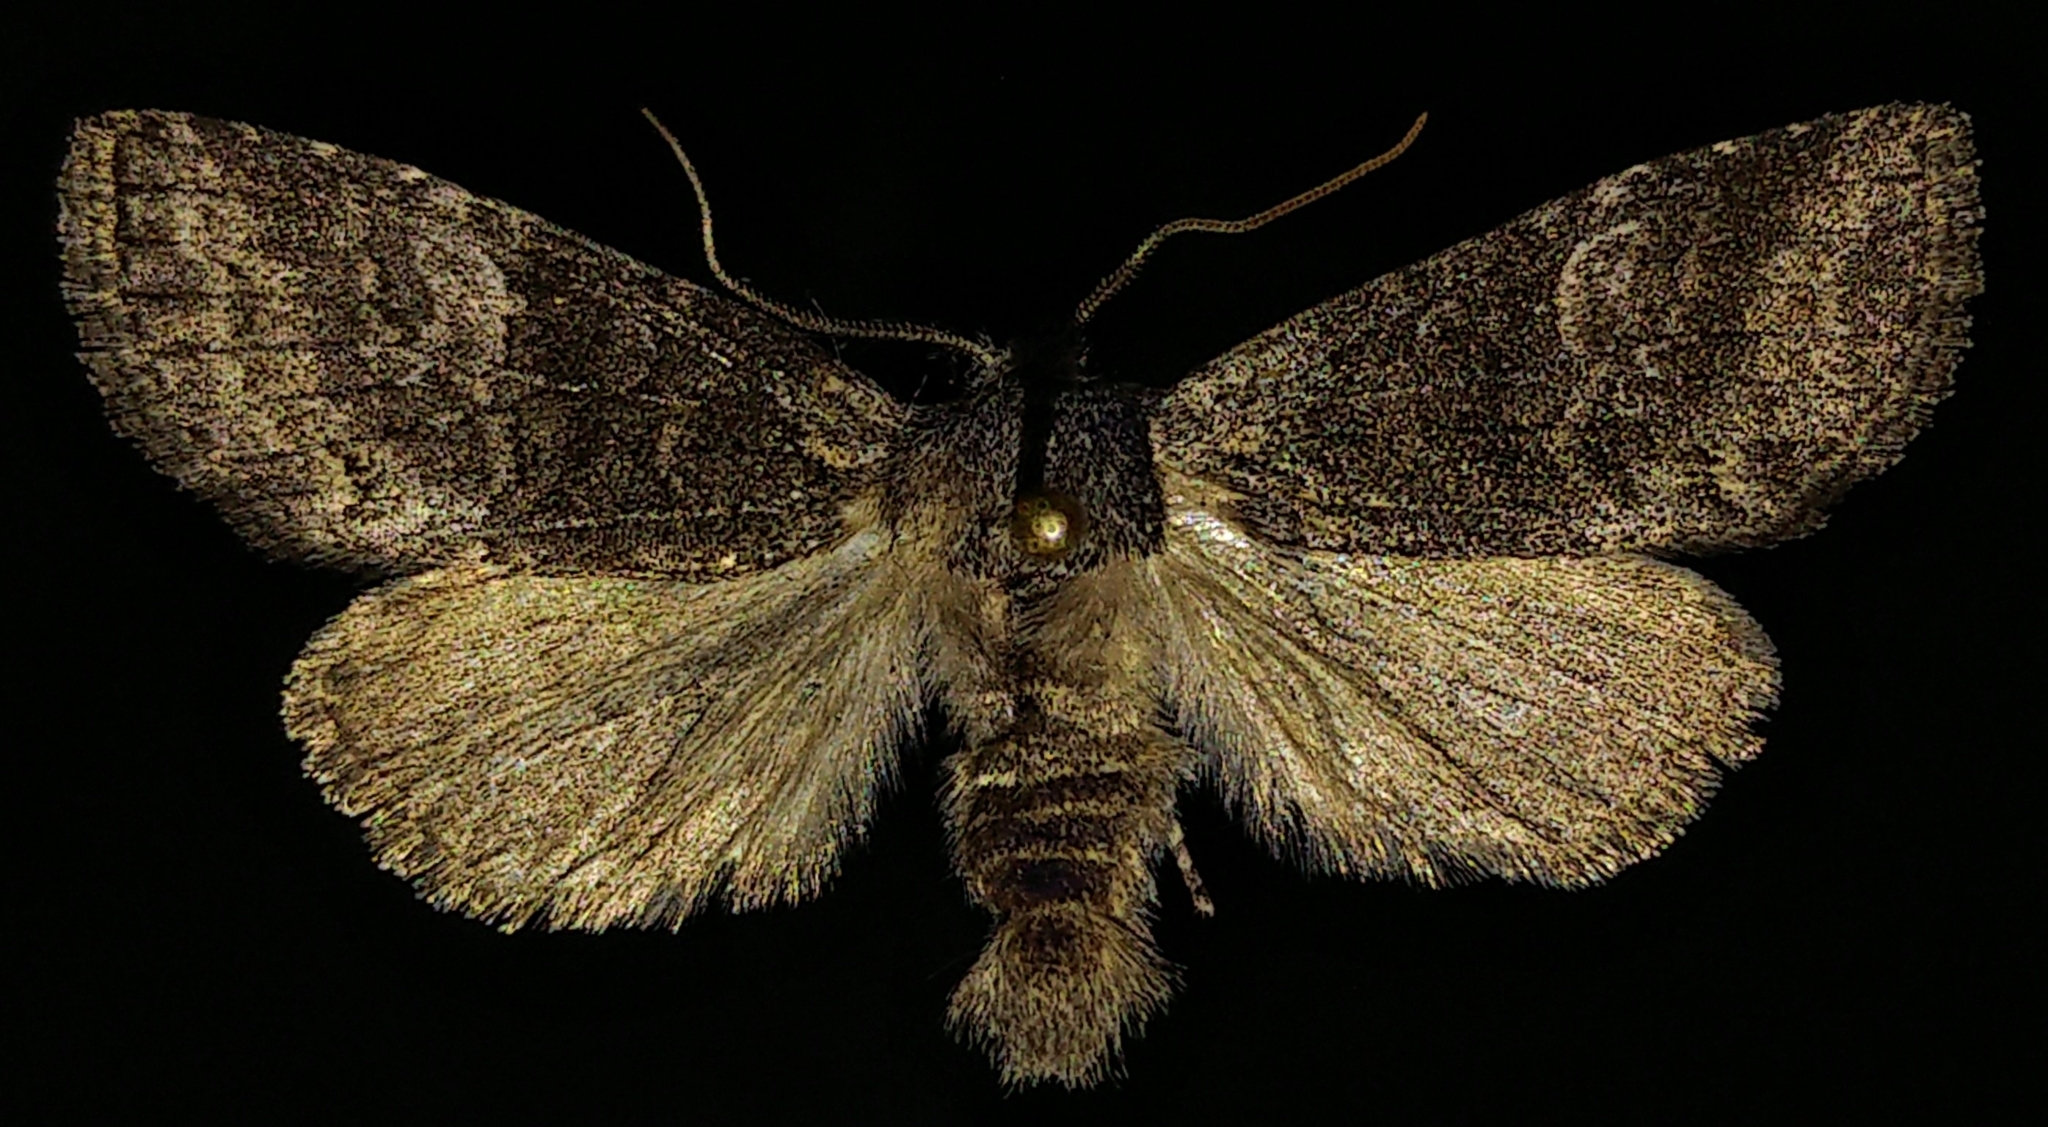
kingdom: Animalia
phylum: Arthropoda
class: Insecta
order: Lepidoptera
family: Noctuidae
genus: Brachylomia
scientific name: Brachylomia discinigra
